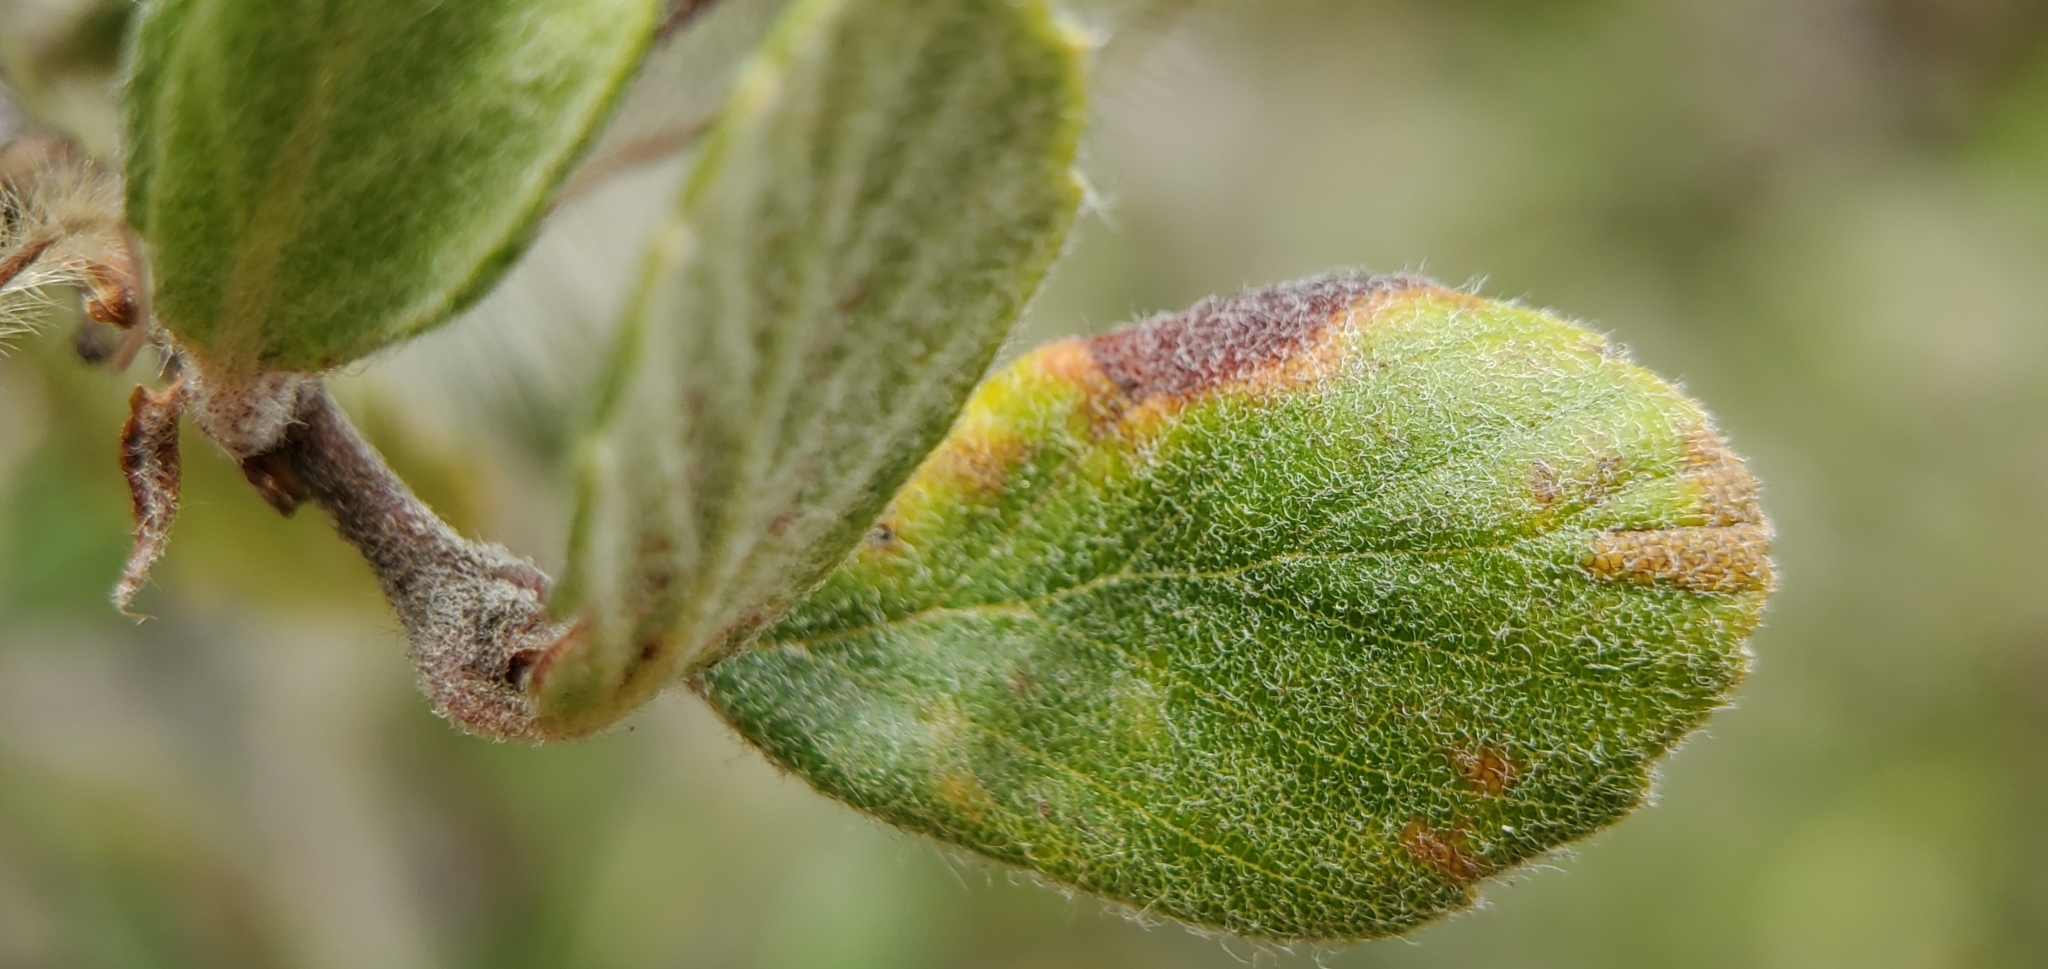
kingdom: Plantae
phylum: Tracheophyta
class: Magnoliopsida
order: Rosales
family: Rosaceae
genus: Cercocarpus
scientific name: Cercocarpus betuloides
